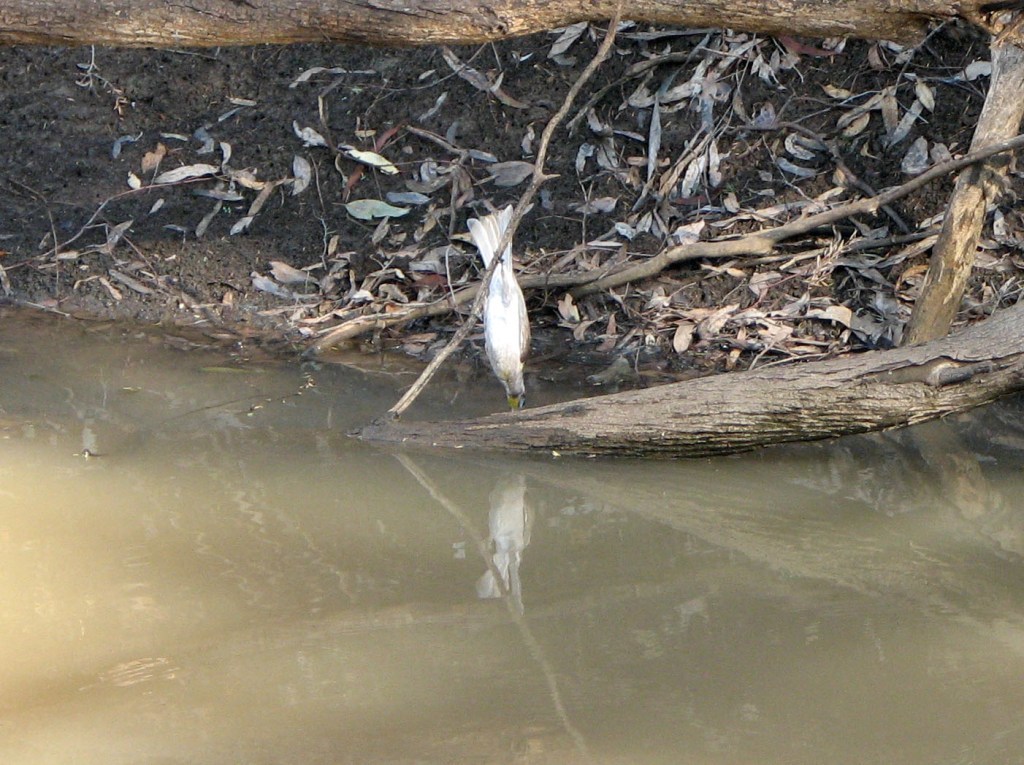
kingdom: Animalia
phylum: Chordata
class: Aves
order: Passeriformes
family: Meliphagidae
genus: Philemon
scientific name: Philemon citreogularis
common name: Little friarbird
